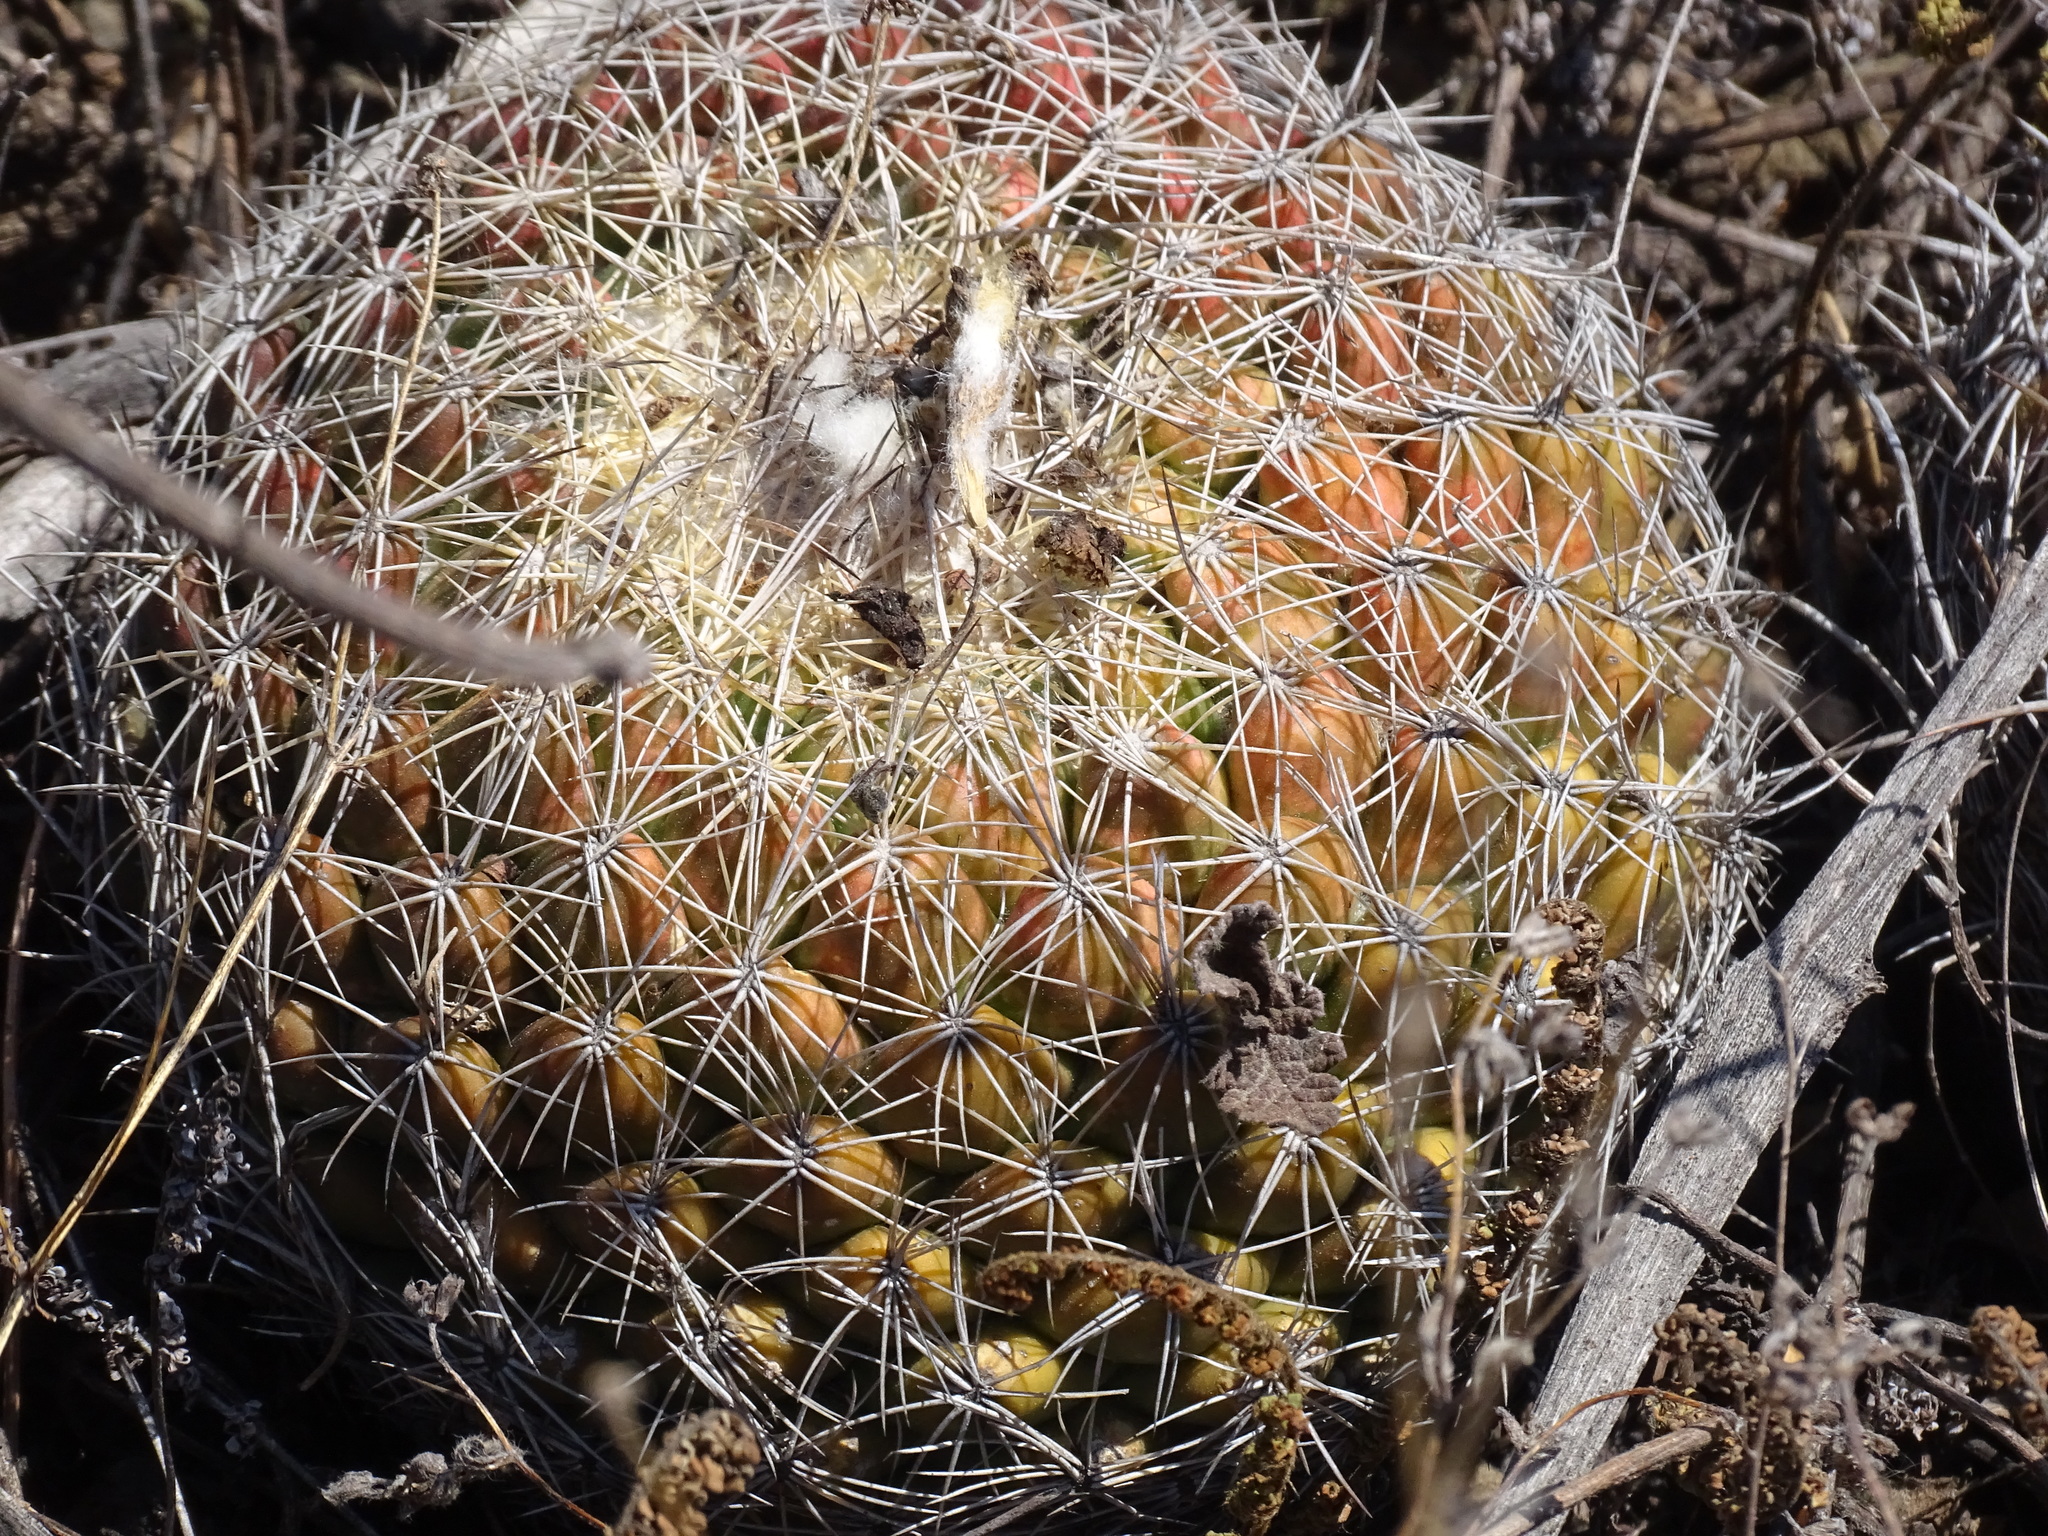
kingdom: Plantae
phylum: Tracheophyta
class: Magnoliopsida
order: Caryophyllales
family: Cactaceae
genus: Coryphantha
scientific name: Coryphantha pallida
